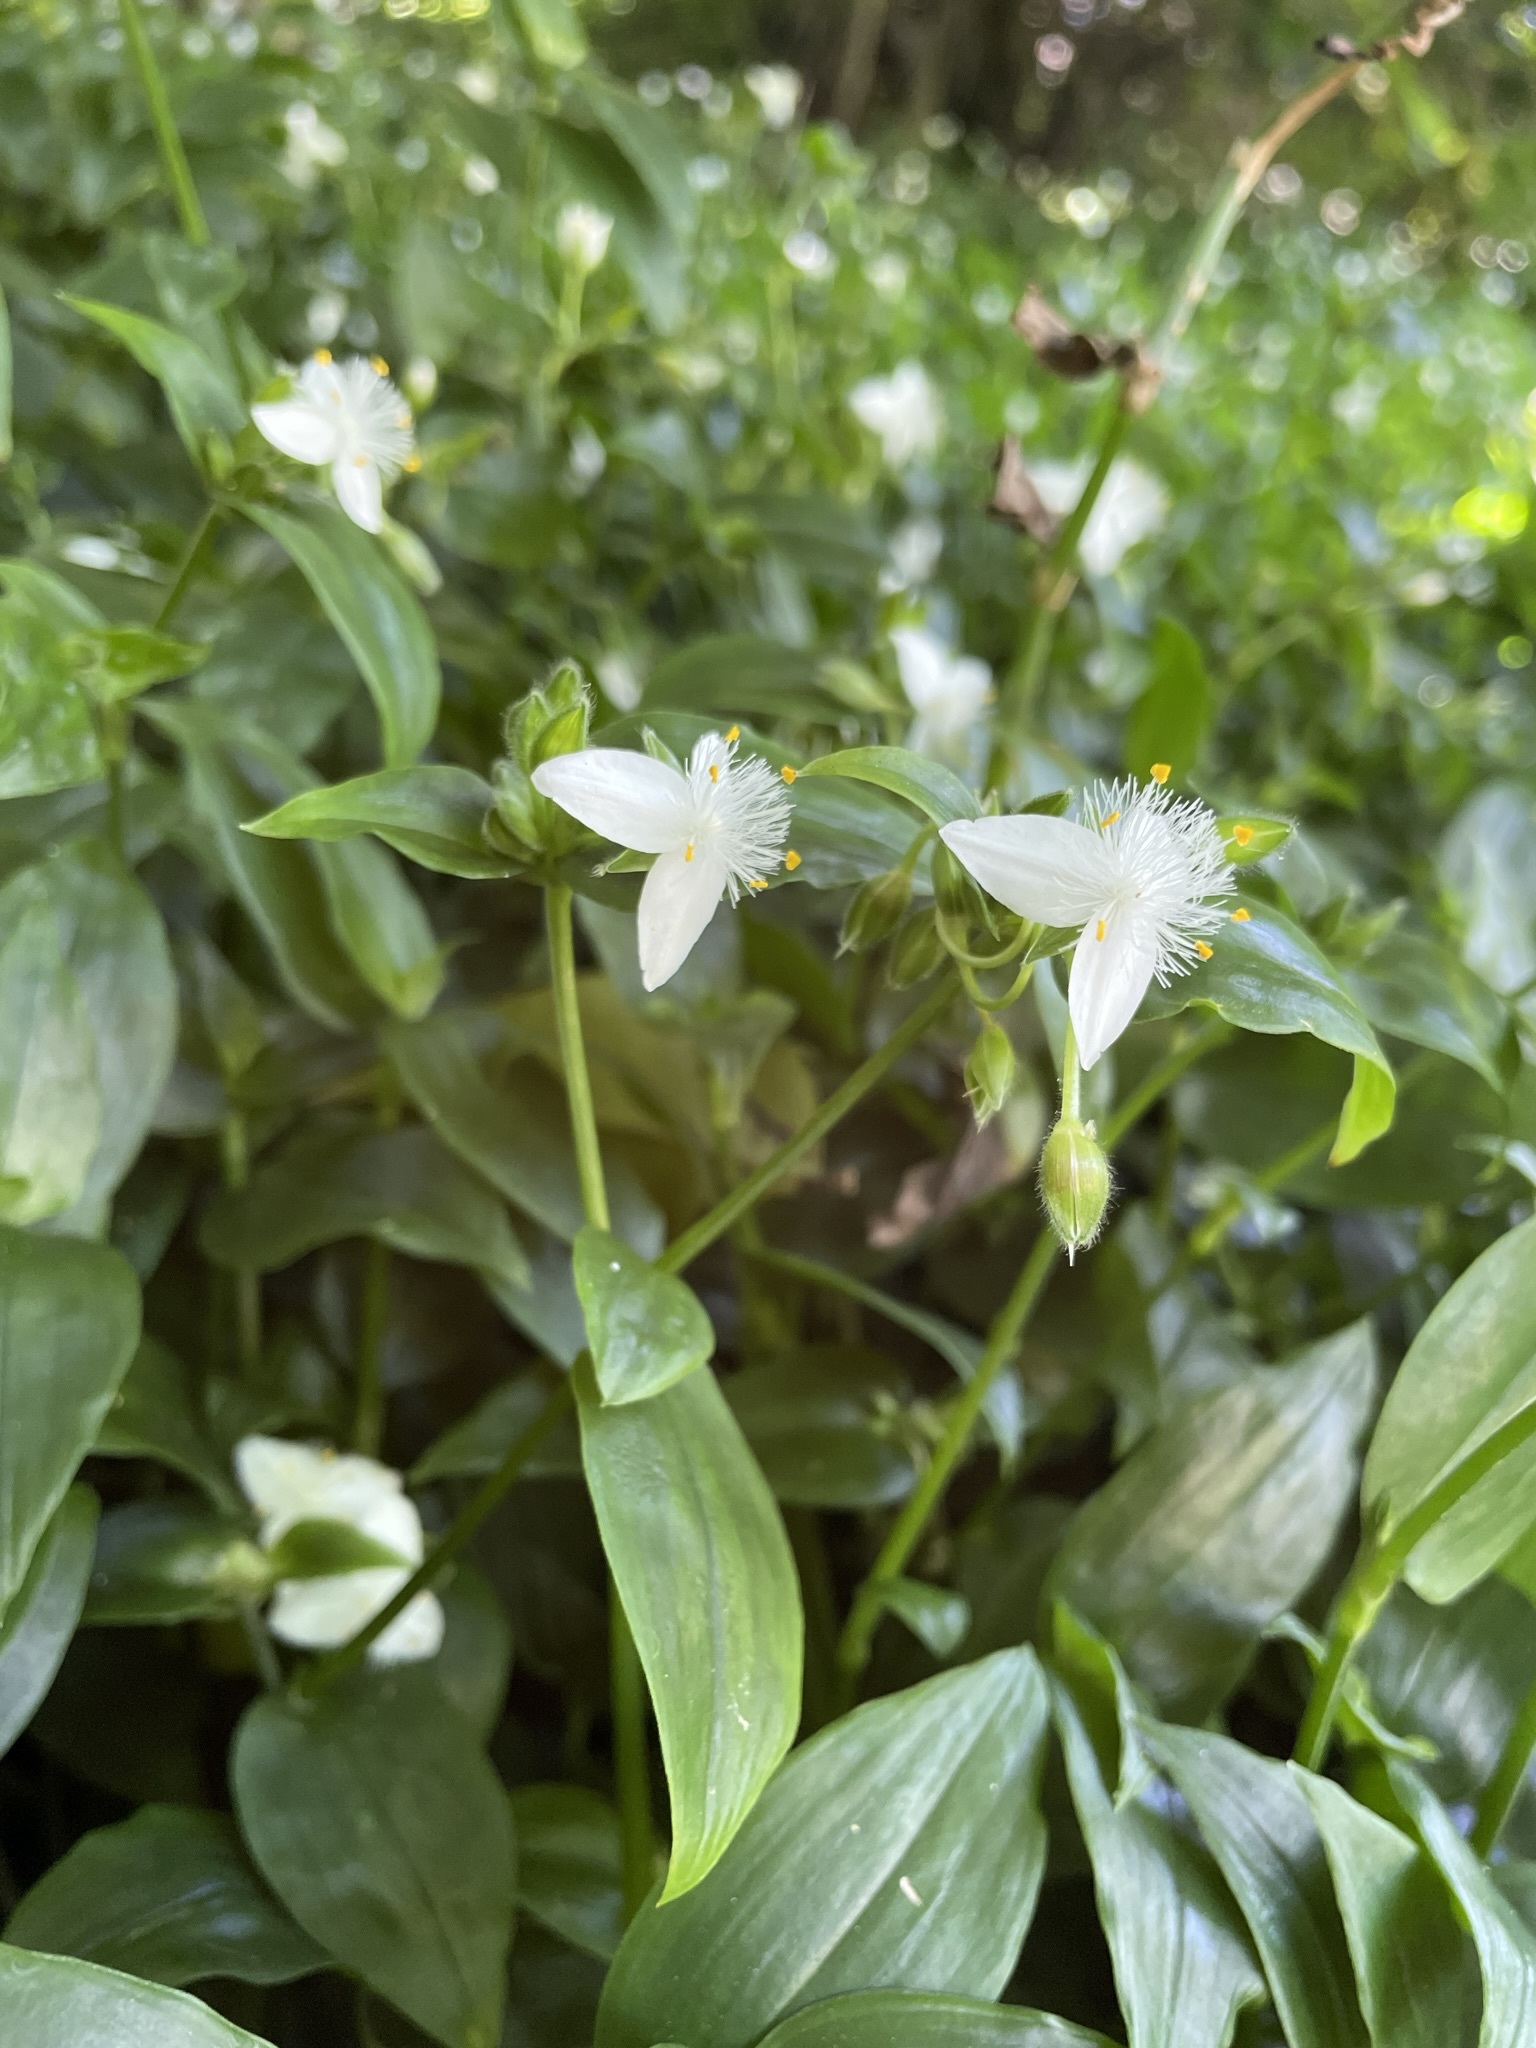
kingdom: Plantae
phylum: Tracheophyta
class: Liliopsida
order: Commelinales
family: Commelinaceae
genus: Tradescantia
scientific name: Tradescantia fluminensis
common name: Wandering-jew
